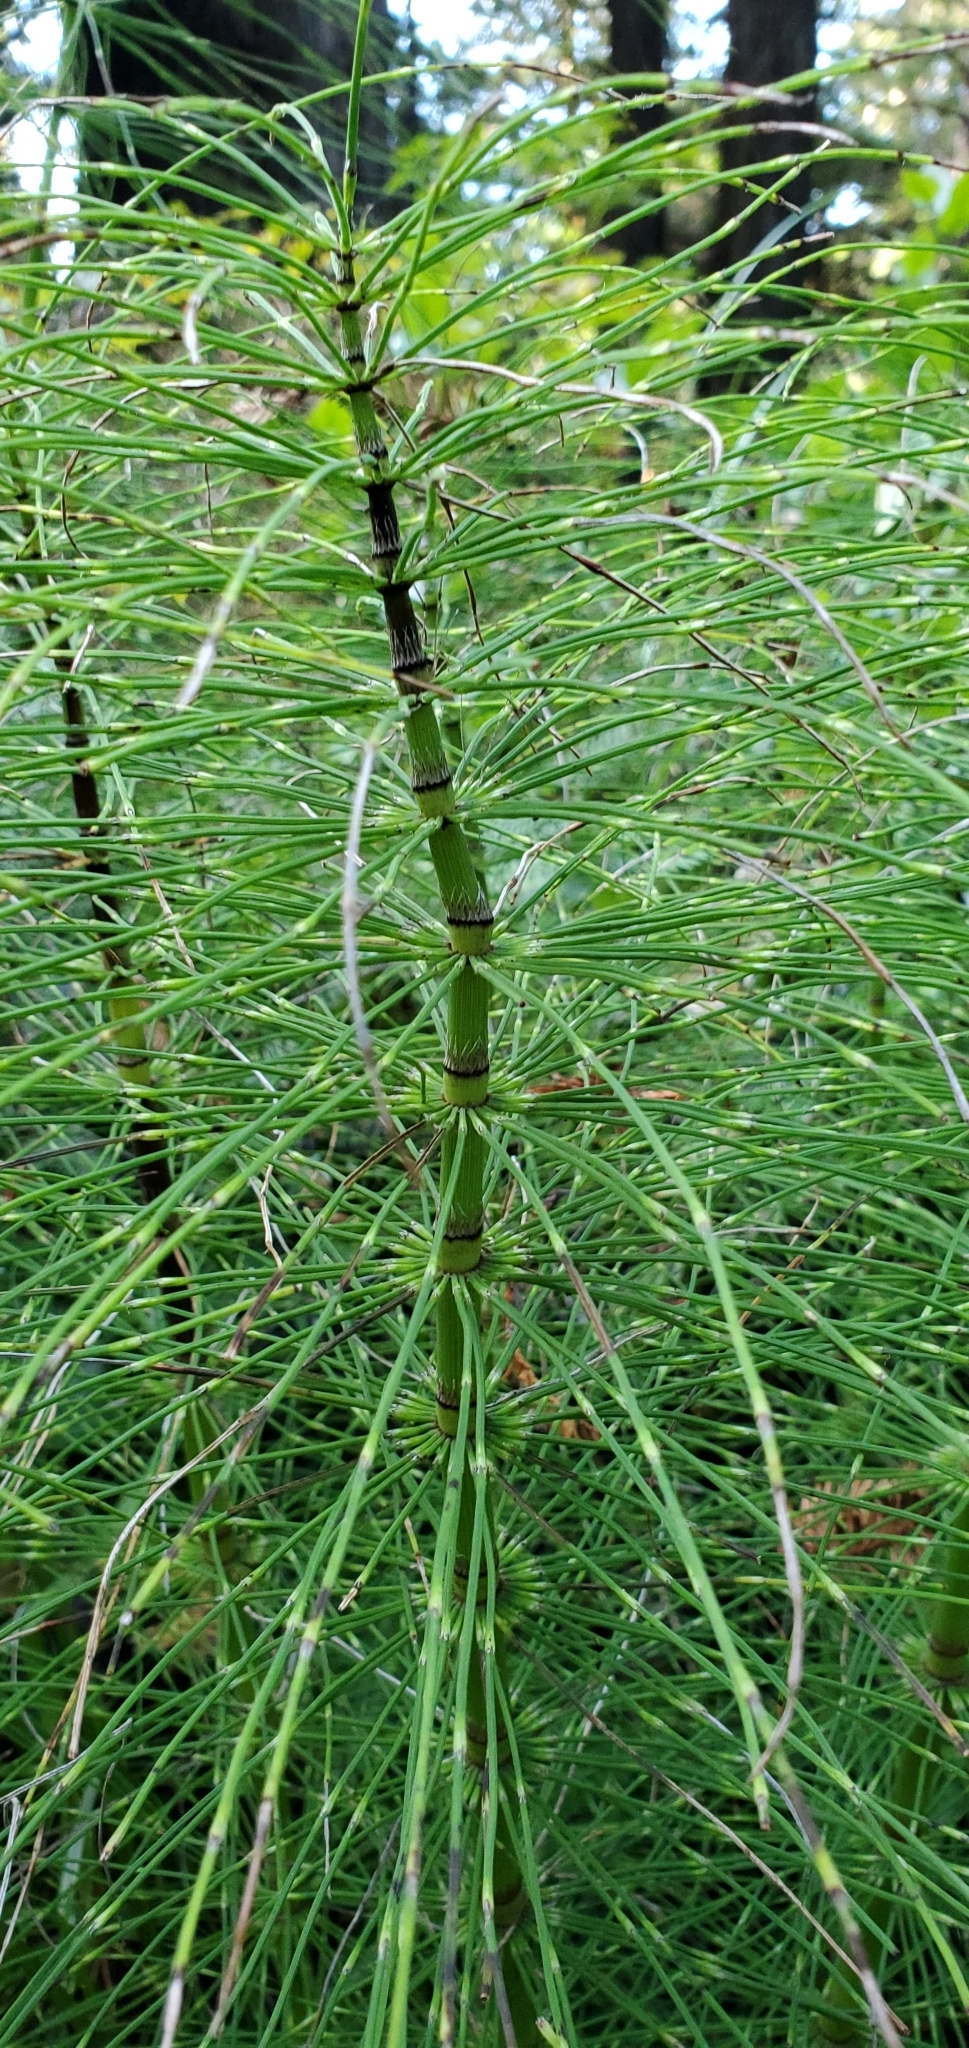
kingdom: Plantae
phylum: Tracheophyta
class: Polypodiopsida
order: Equisetales
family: Equisetaceae
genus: Equisetum
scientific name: Equisetum telmateia
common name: Great horsetail
